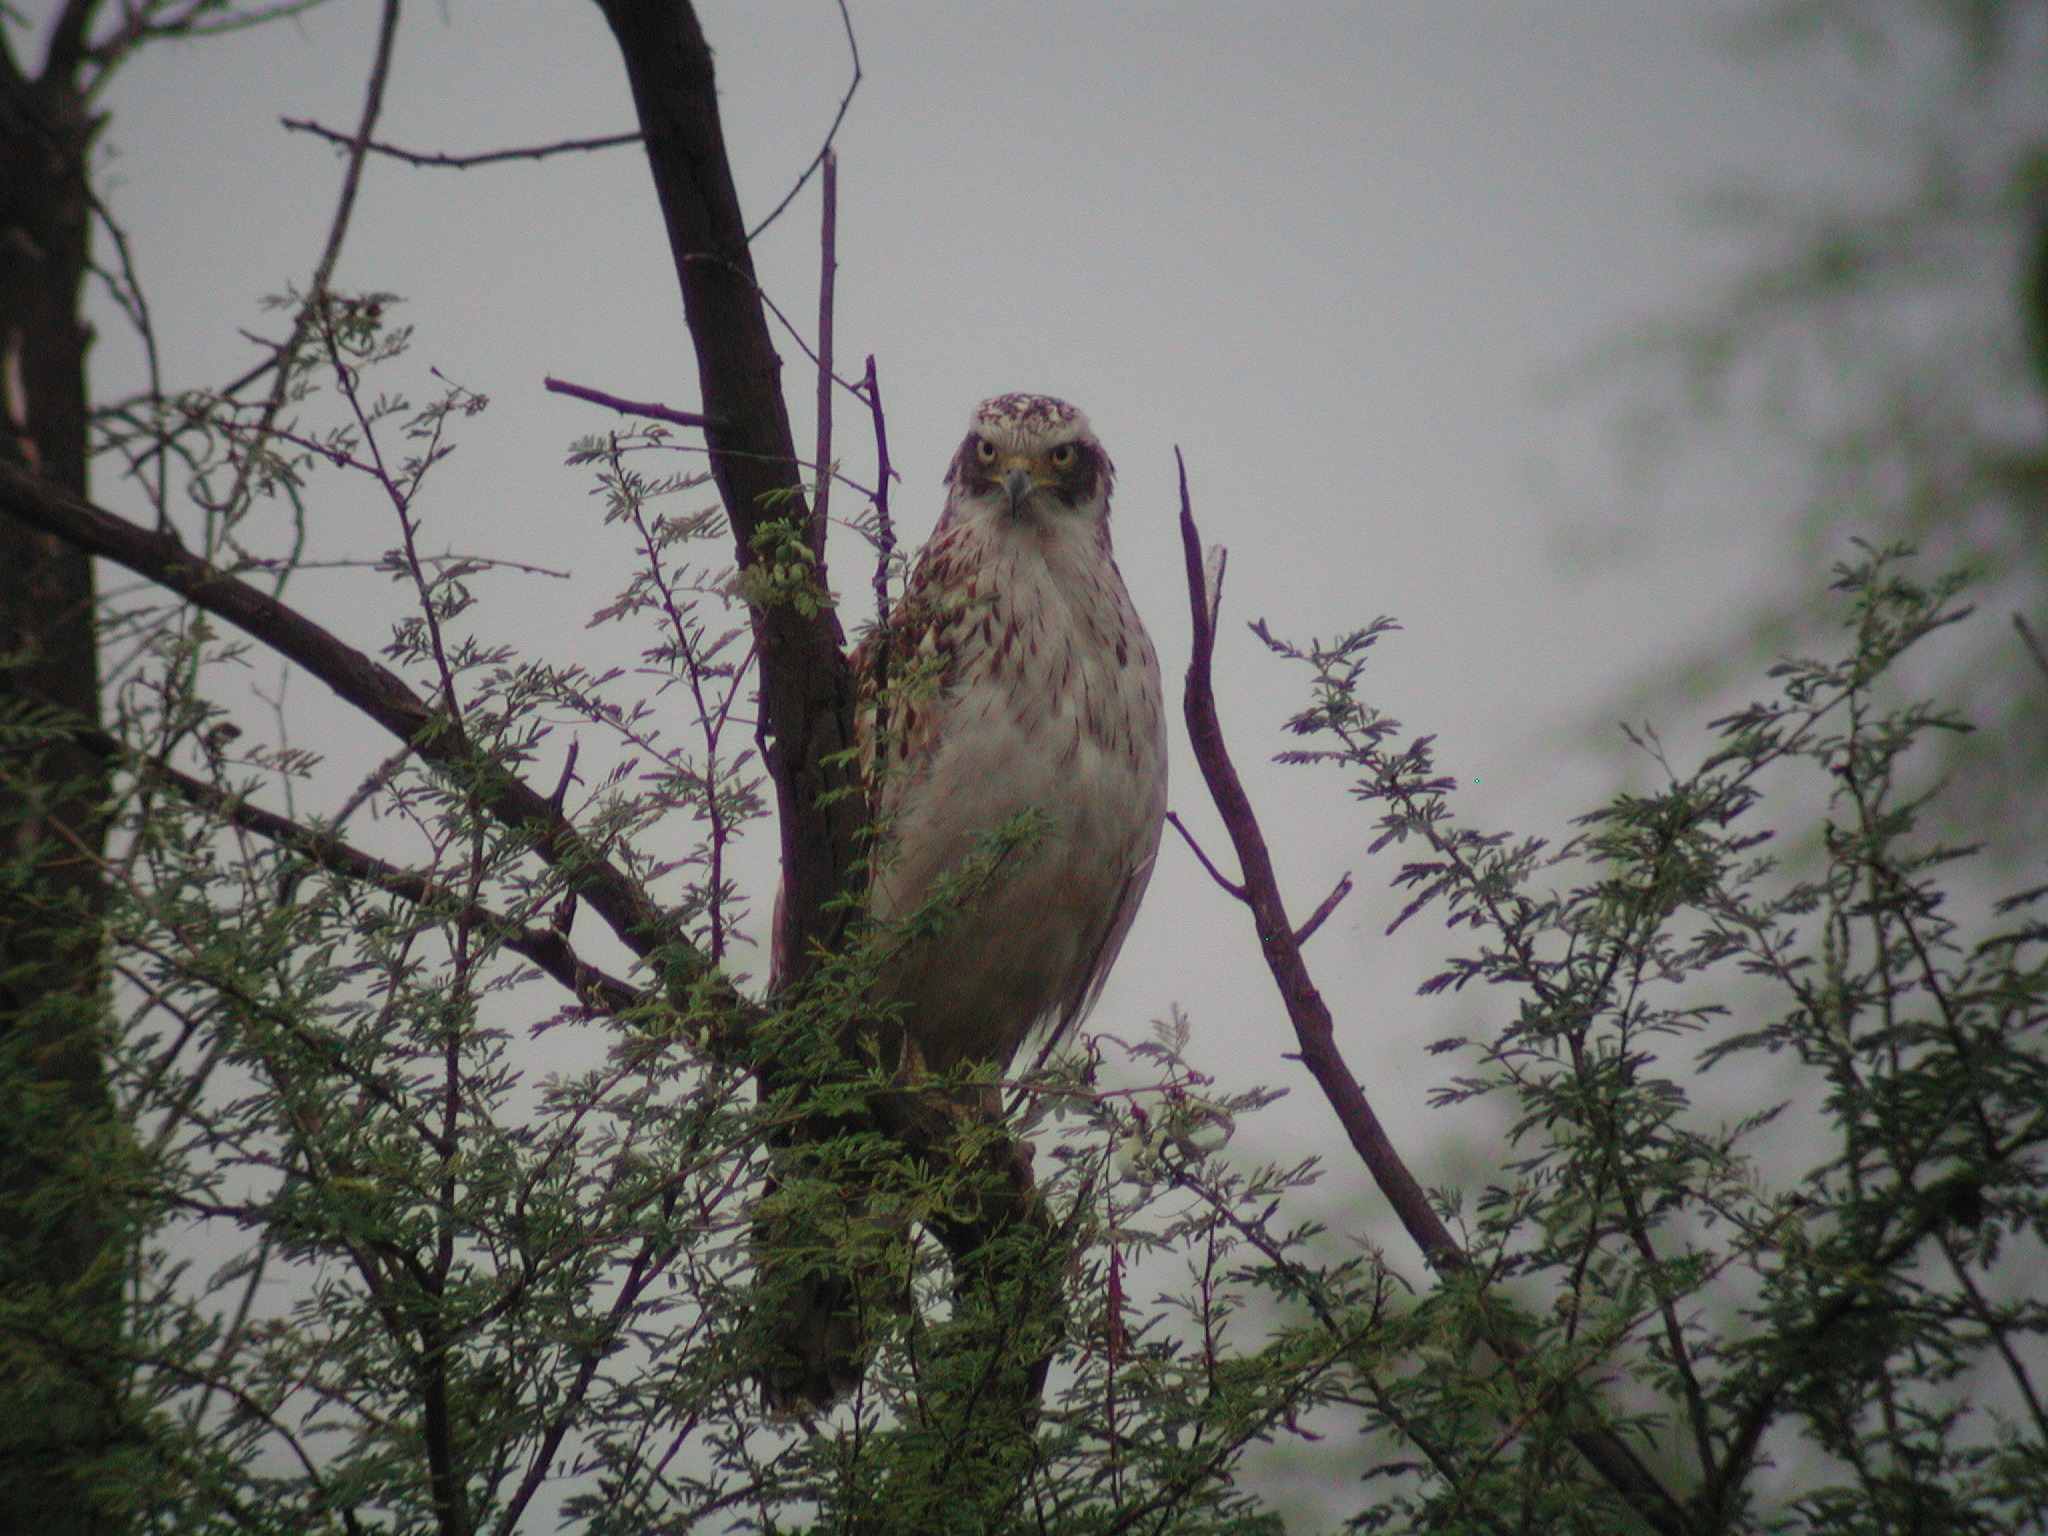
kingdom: Animalia
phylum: Chordata
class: Aves
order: Accipitriformes
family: Accipitridae
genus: Spilornis
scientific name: Spilornis cheela
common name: Crested serpent eagle
